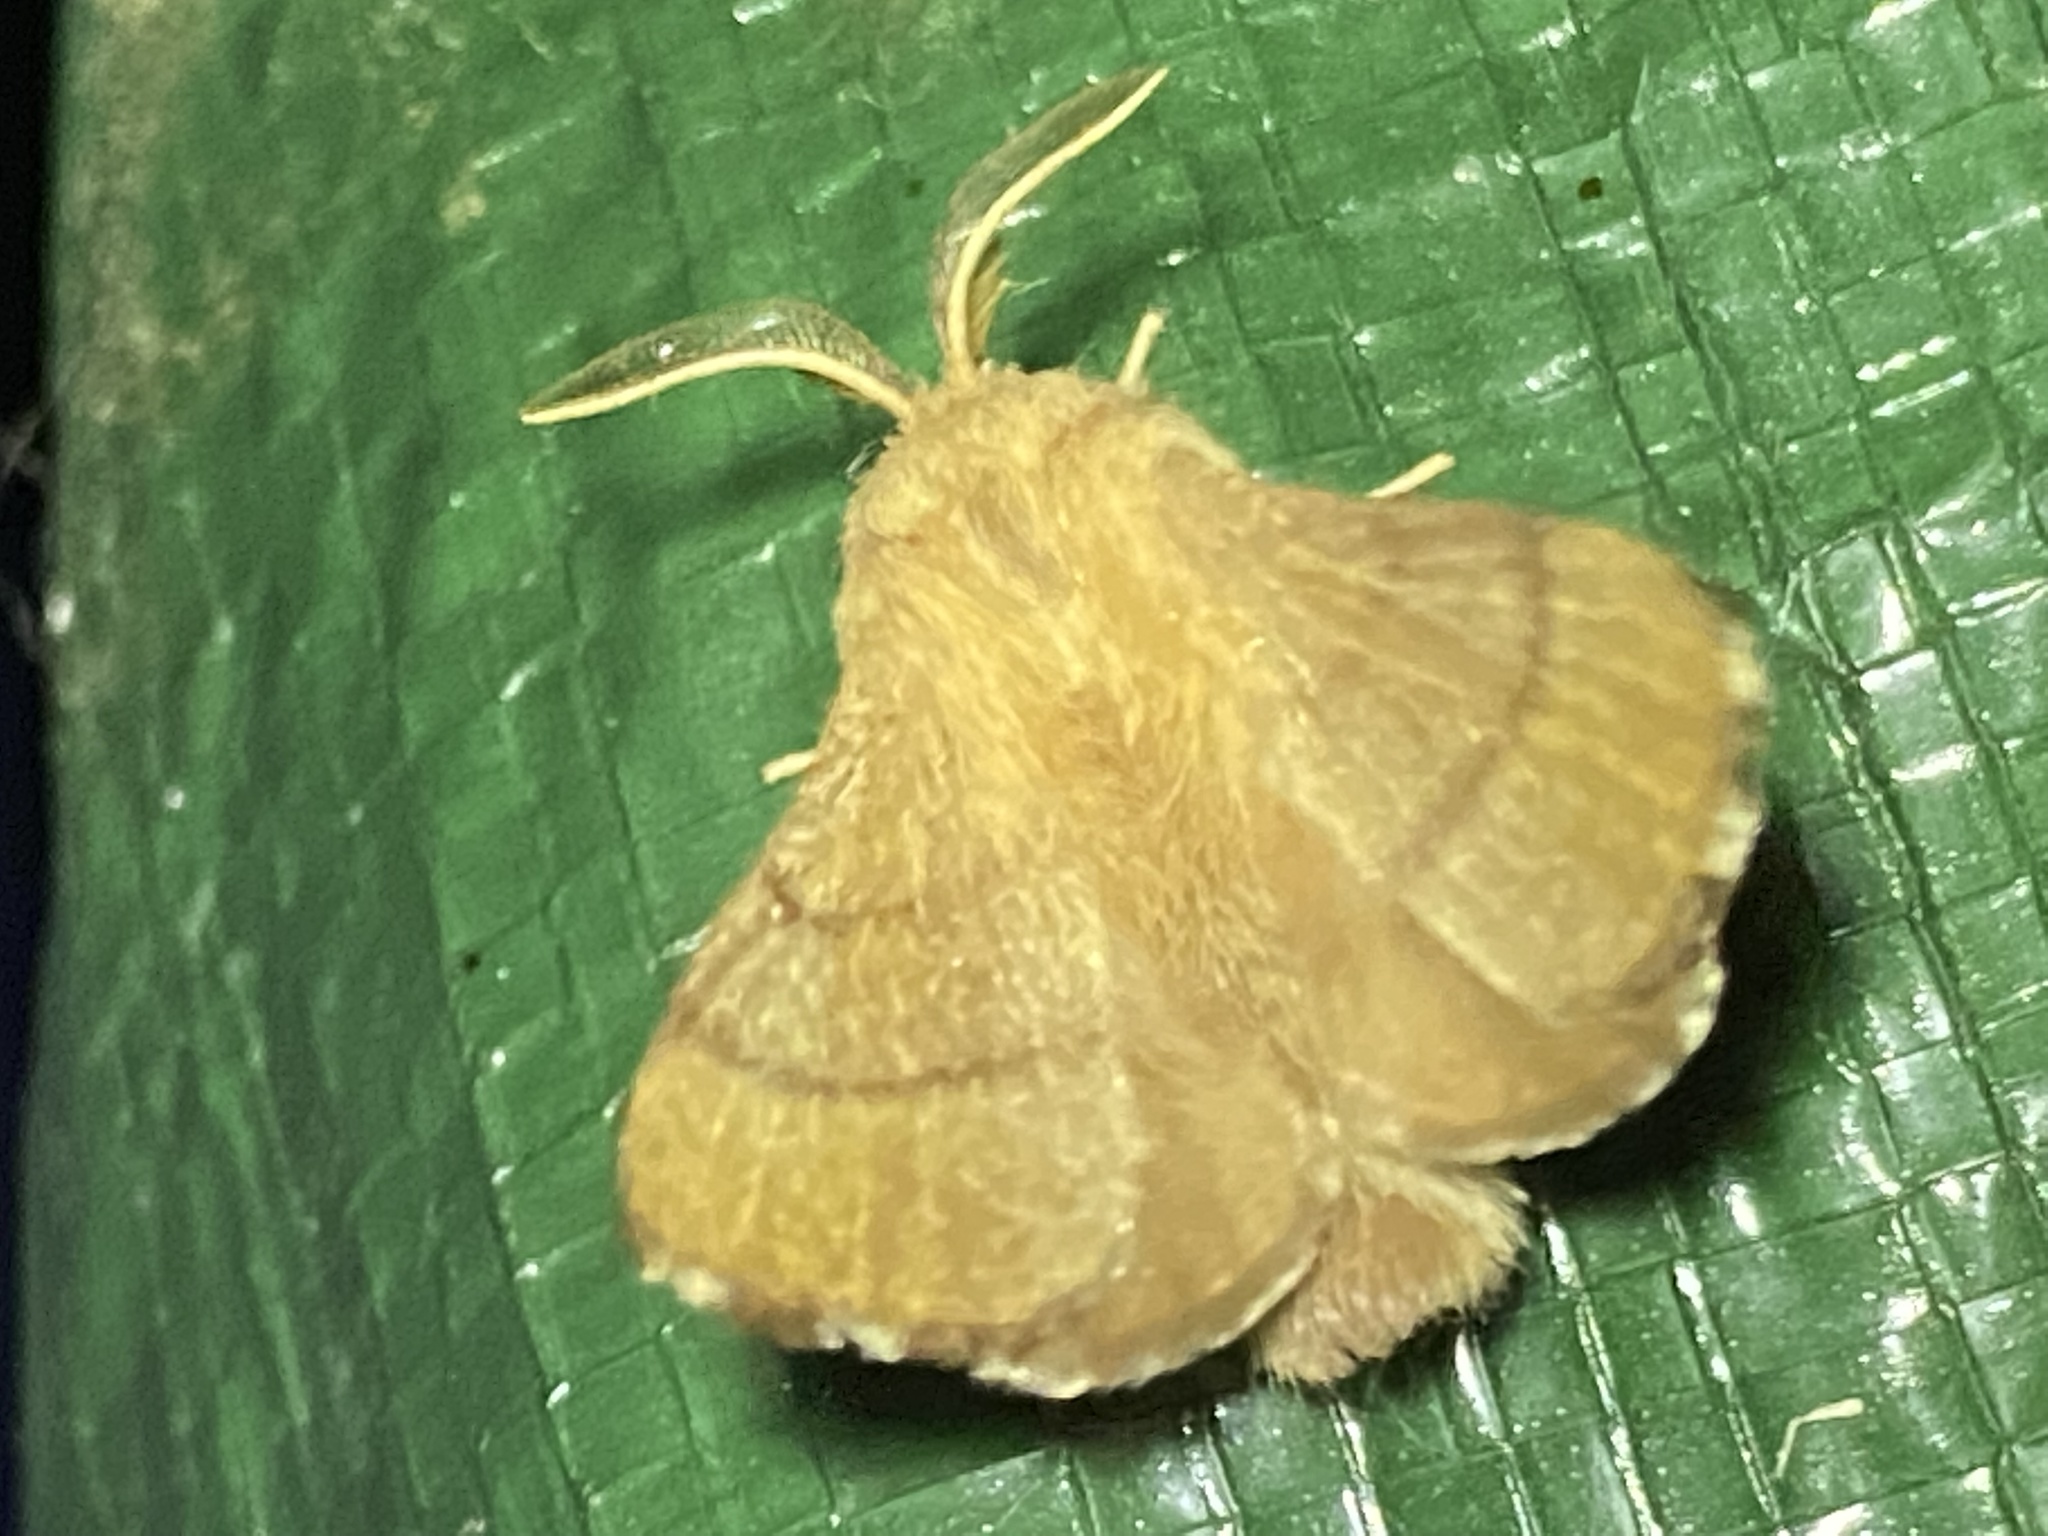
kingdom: Animalia
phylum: Arthropoda
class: Insecta
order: Lepidoptera
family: Lasiocampidae
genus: Malacosoma
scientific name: Malacosoma disstria
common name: Forest tent caterpillar
